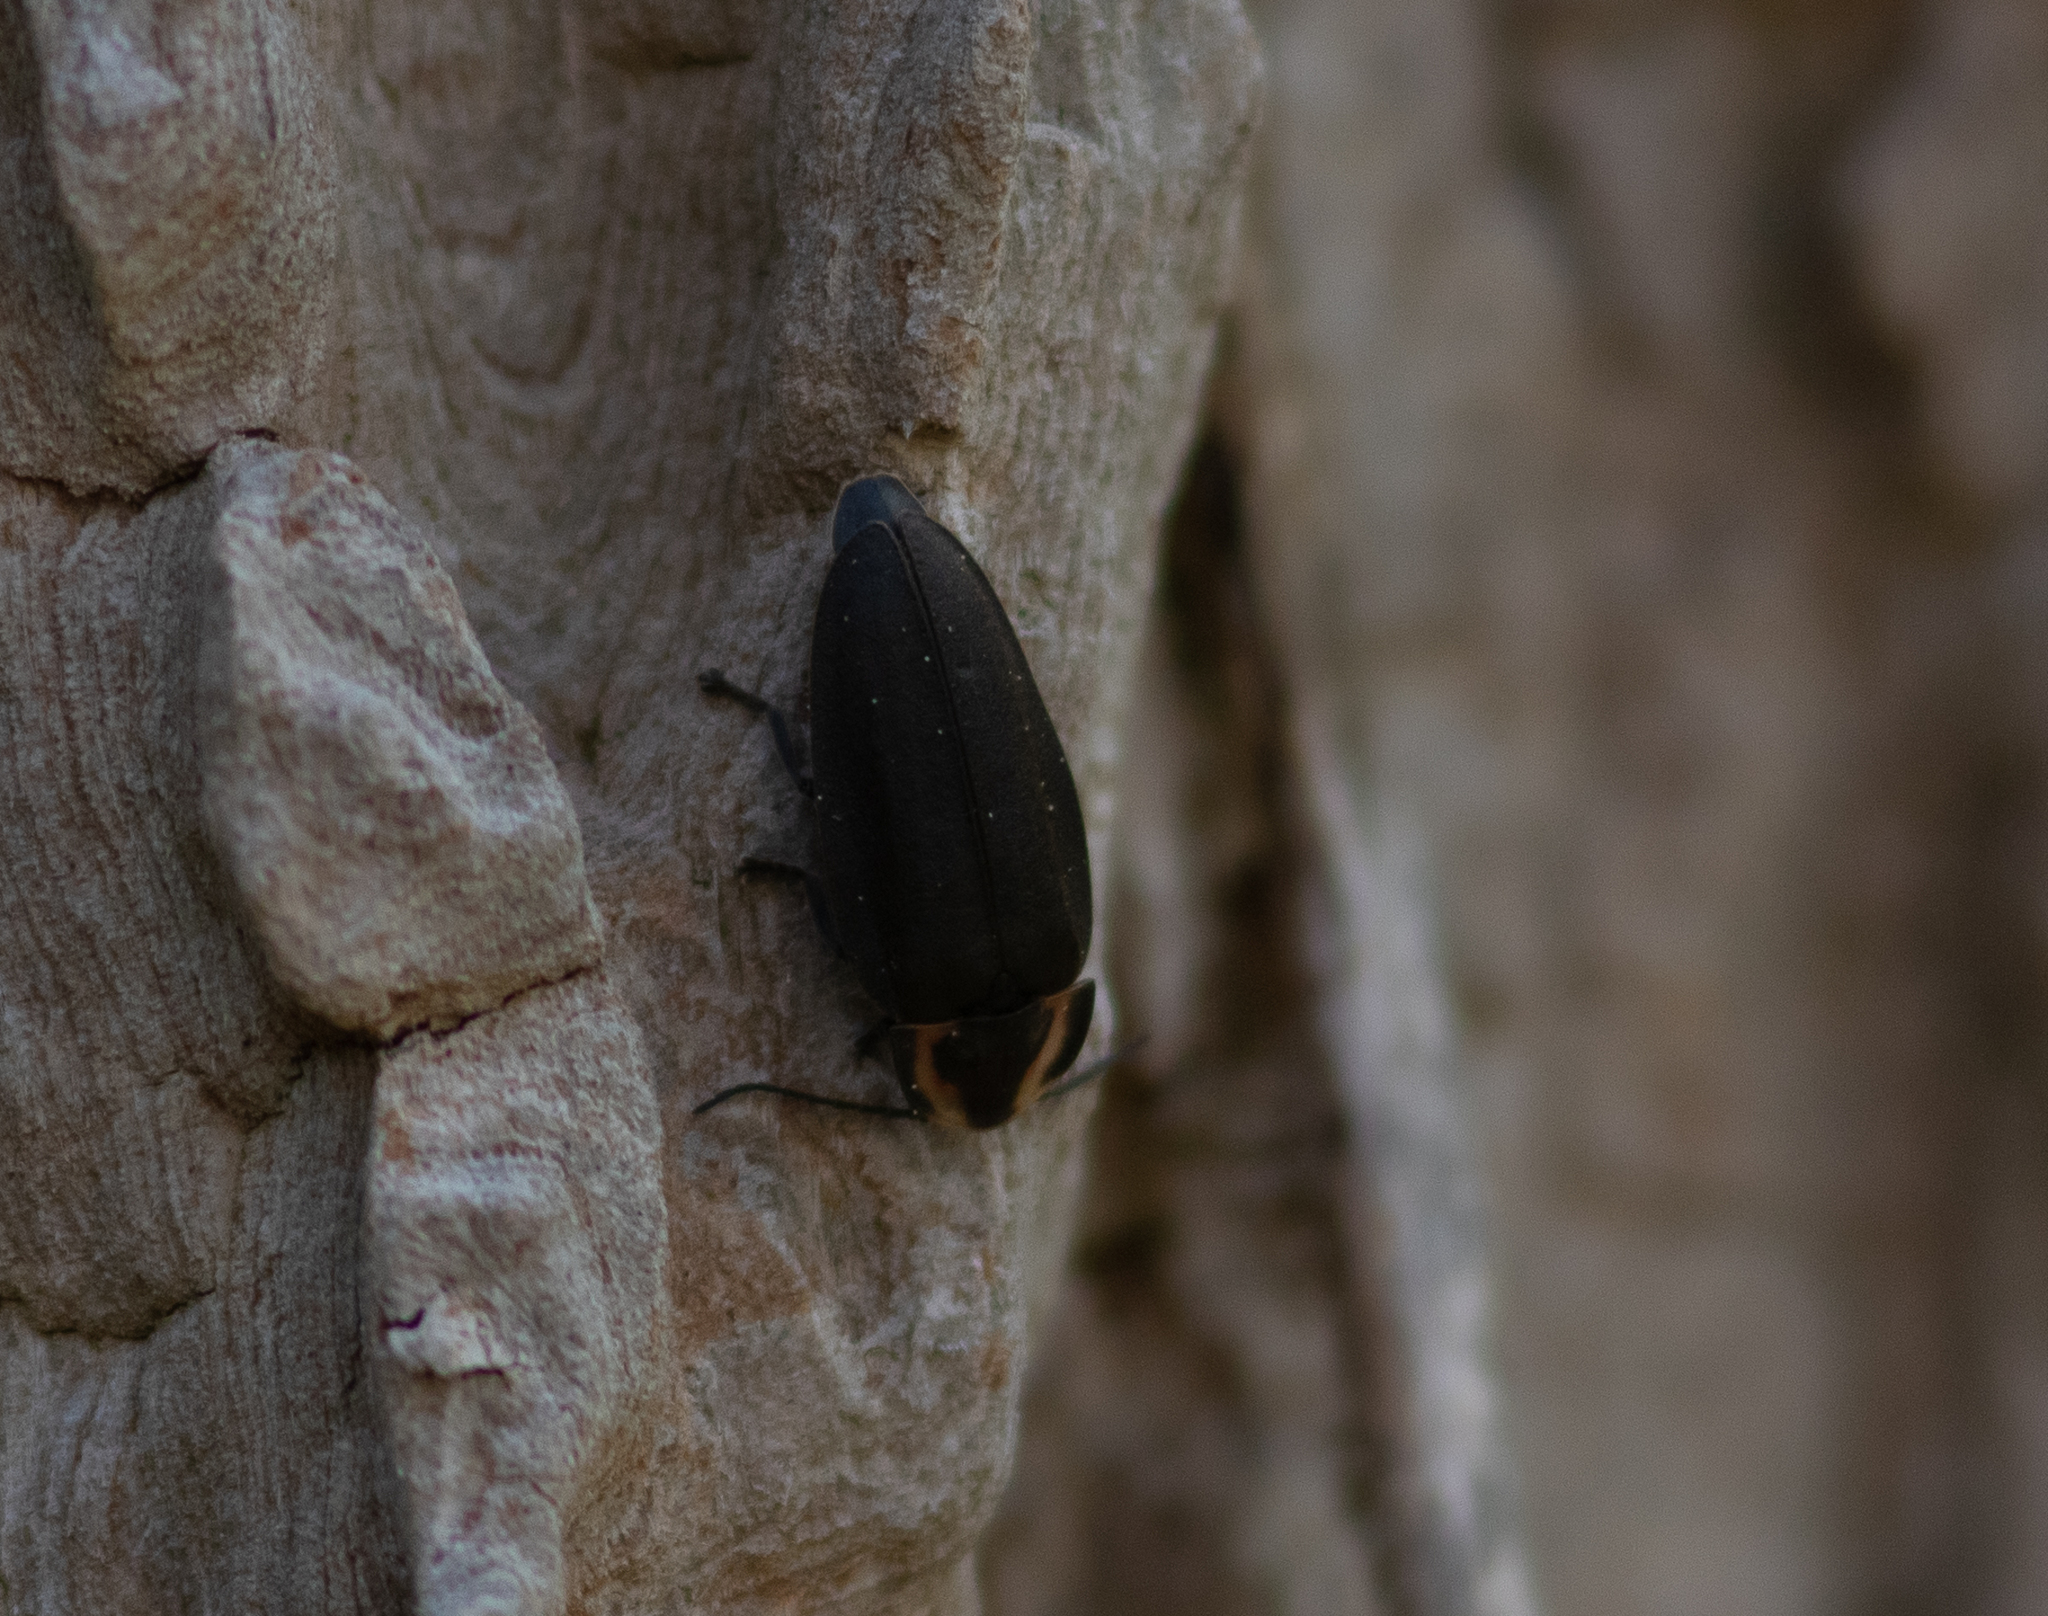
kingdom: Animalia
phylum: Arthropoda
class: Insecta
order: Coleoptera
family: Lampyridae
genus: Photinus
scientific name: Photinus corrusca
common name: Winter firefly
